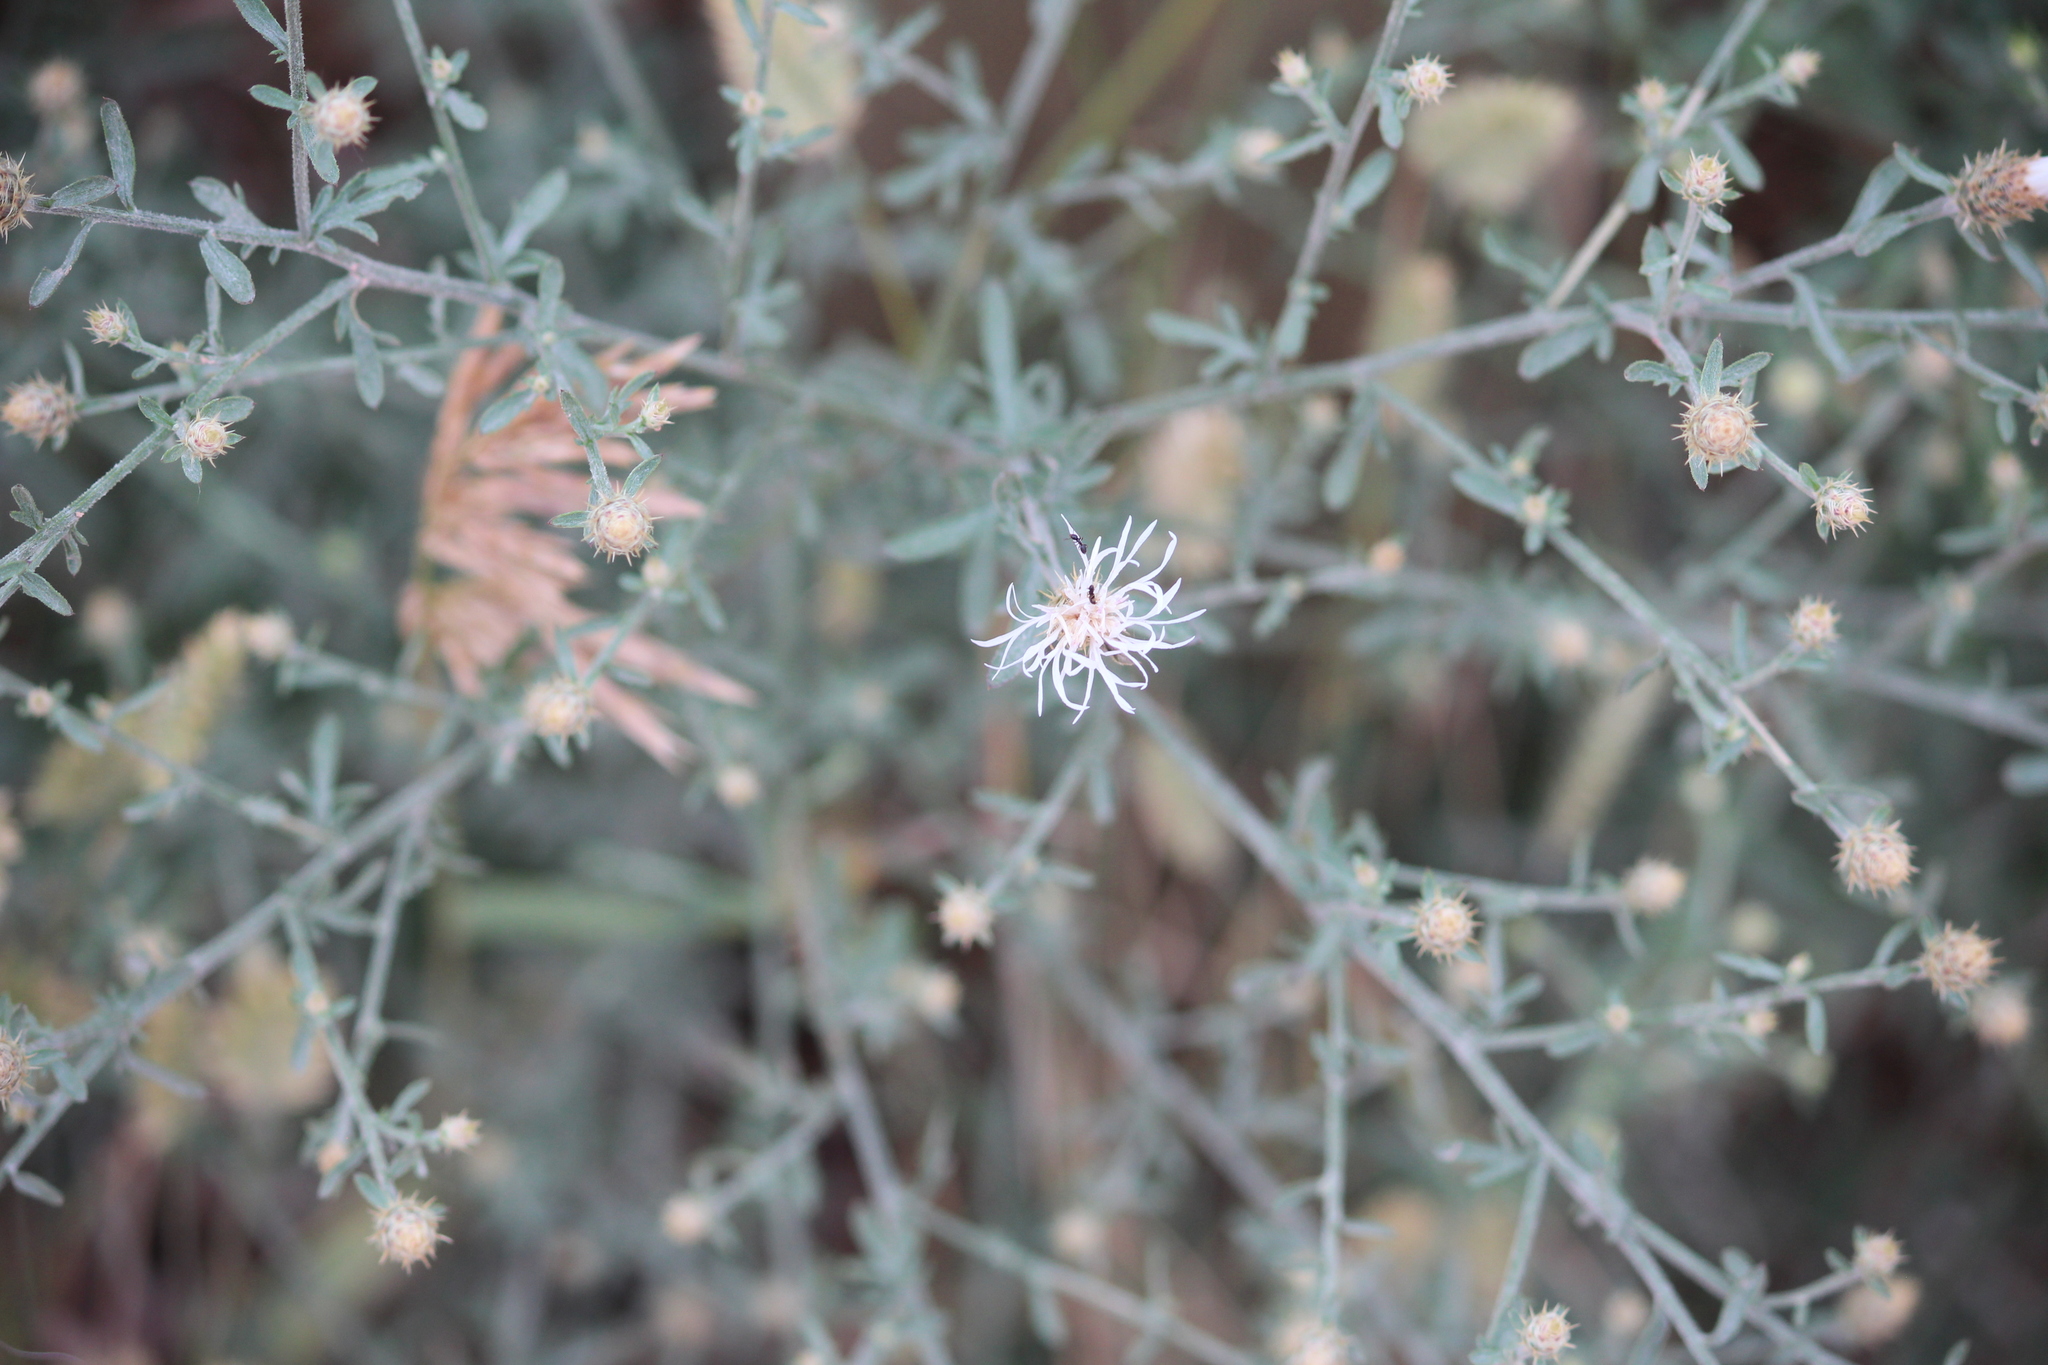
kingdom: Plantae
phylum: Tracheophyta
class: Magnoliopsida
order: Asterales
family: Asteraceae
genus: Centaurea
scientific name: Centaurea diffusa
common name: Diffuse knapweed
